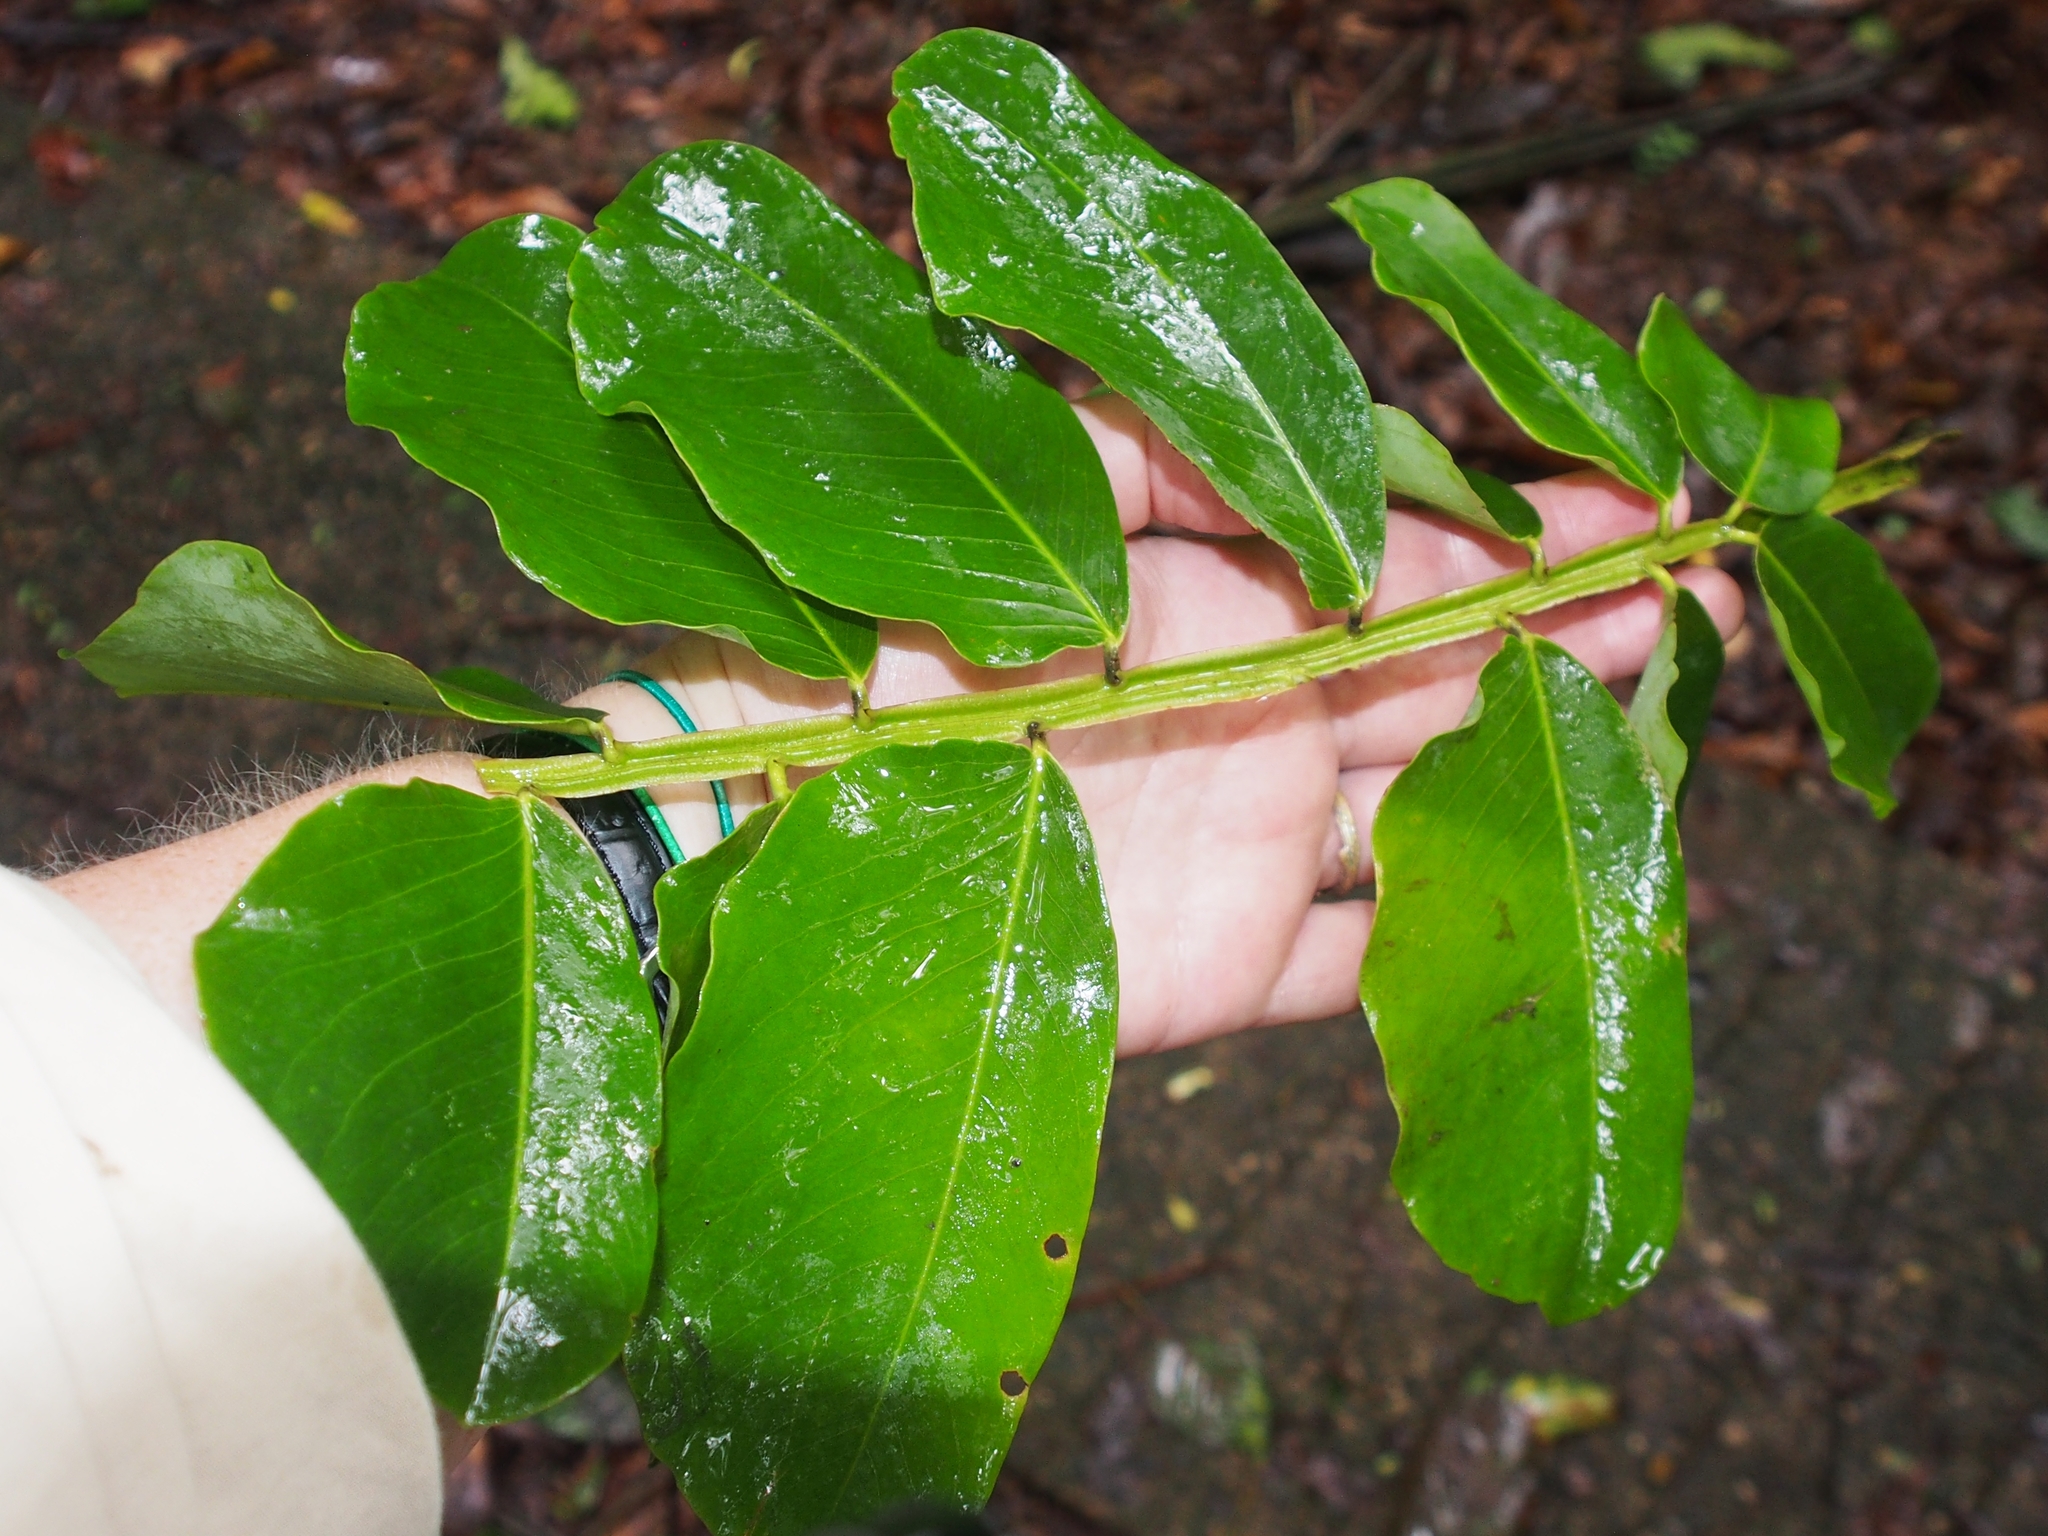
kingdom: Plantae
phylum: Tracheophyta
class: Magnoliopsida
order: Fabales
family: Fabaceae
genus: Dipteryx
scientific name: Dipteryx oleifera
